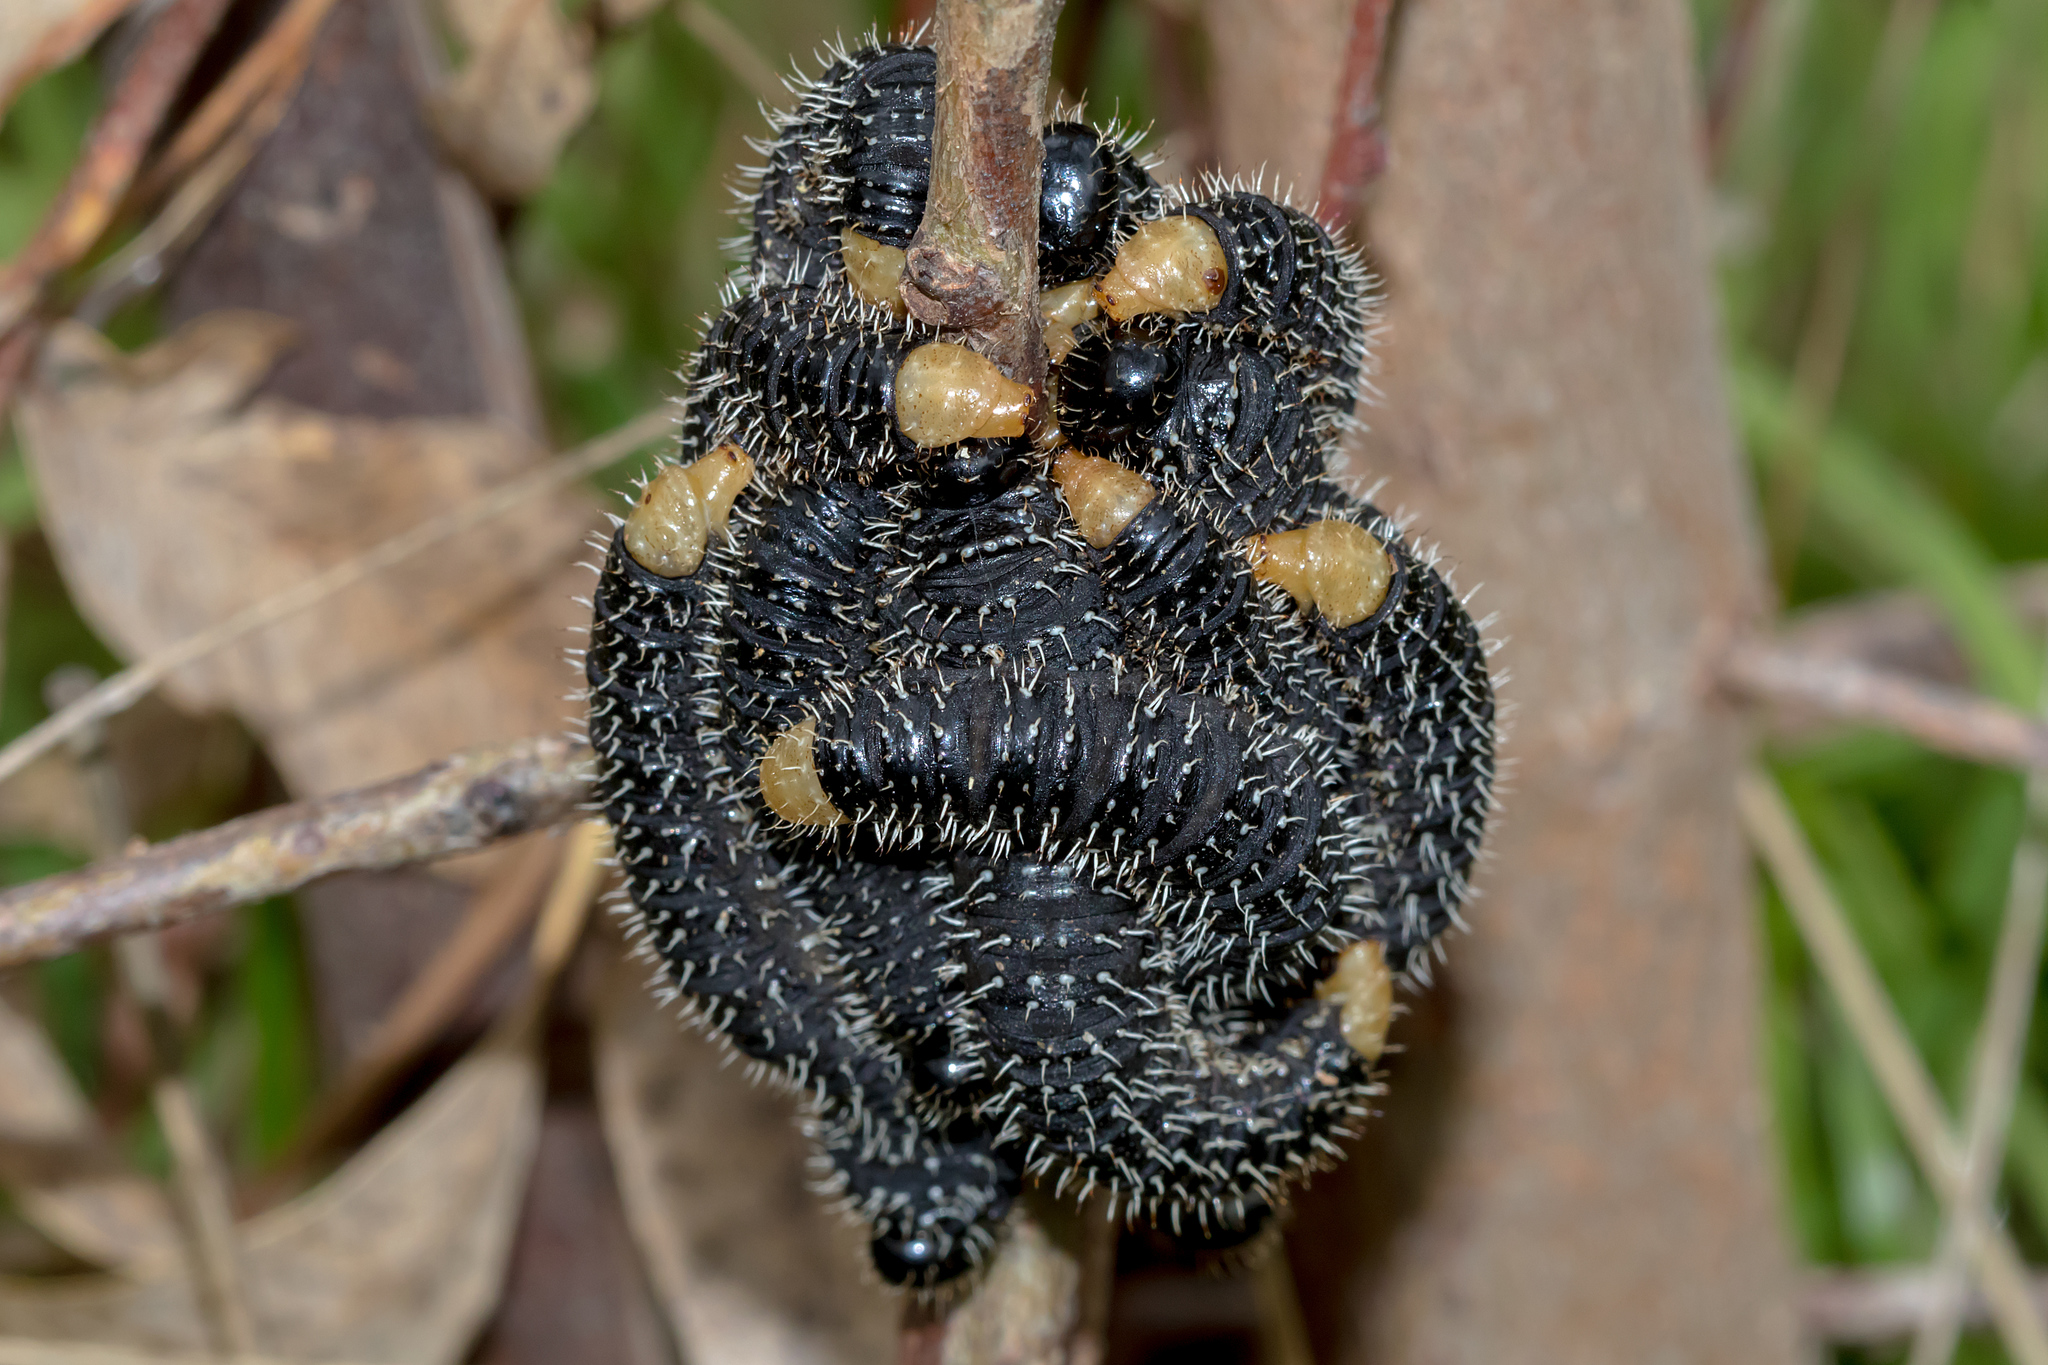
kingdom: Animalia
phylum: Arthropoda
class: Insecta
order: Hymenoptera
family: Pergidae
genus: Perga
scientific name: Perga affinis
